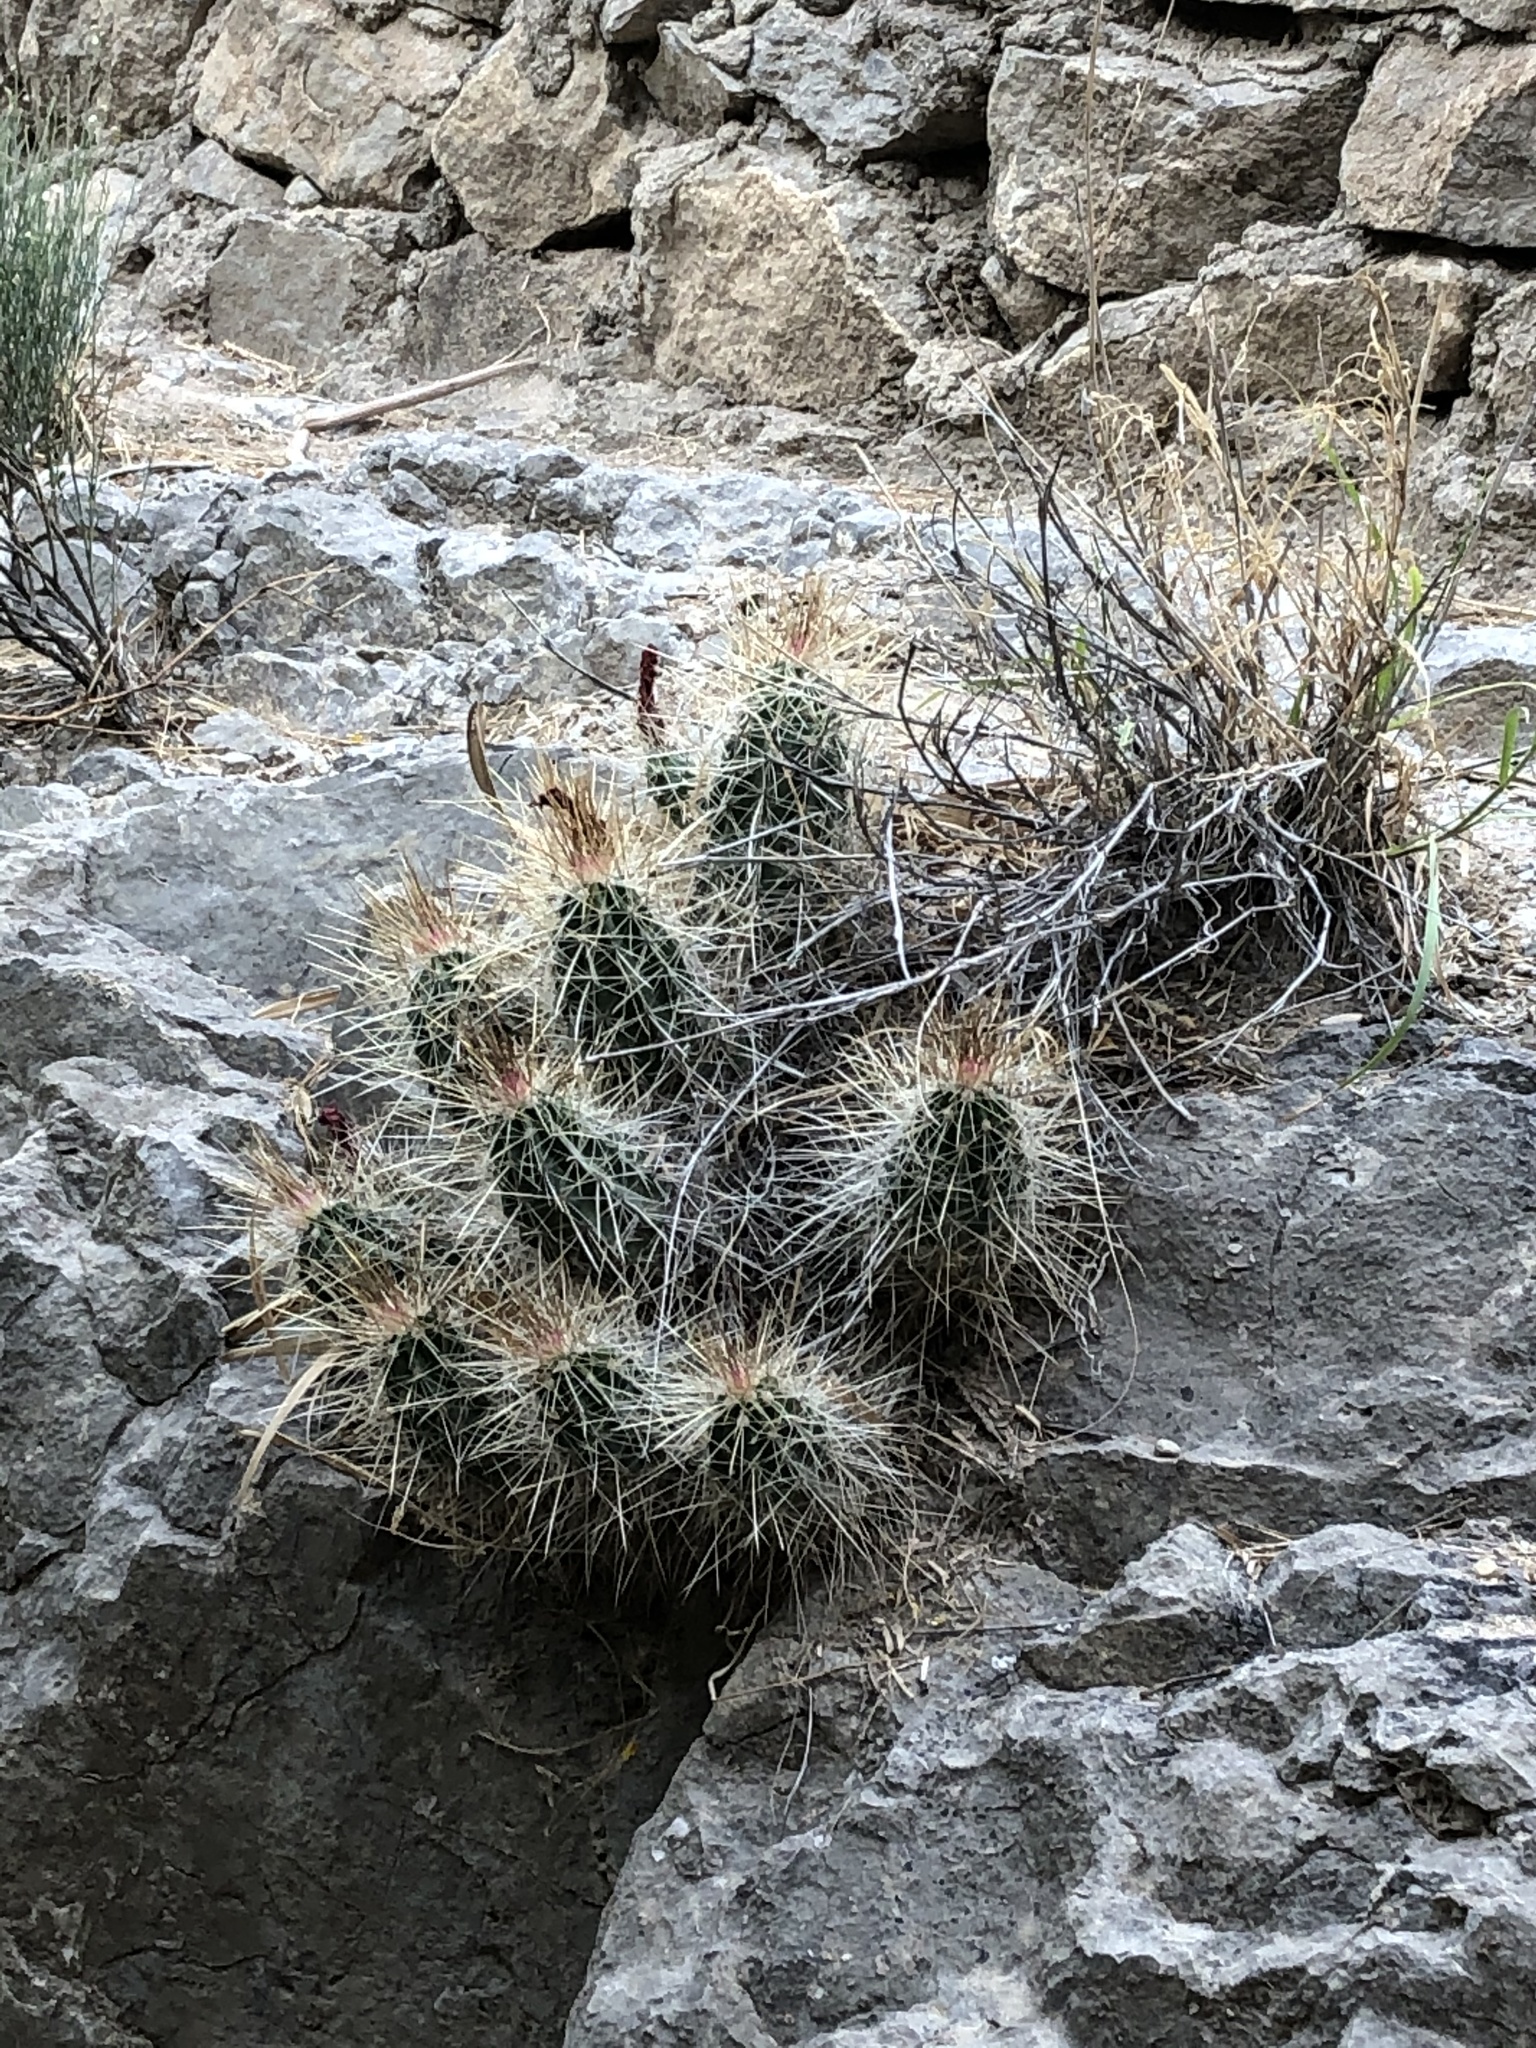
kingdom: Plantae
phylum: Tracheophyta
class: Magnoliopsida
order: Caryophyllales
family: Cactaceae
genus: Echinocereus
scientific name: Echinocereus stramineus
